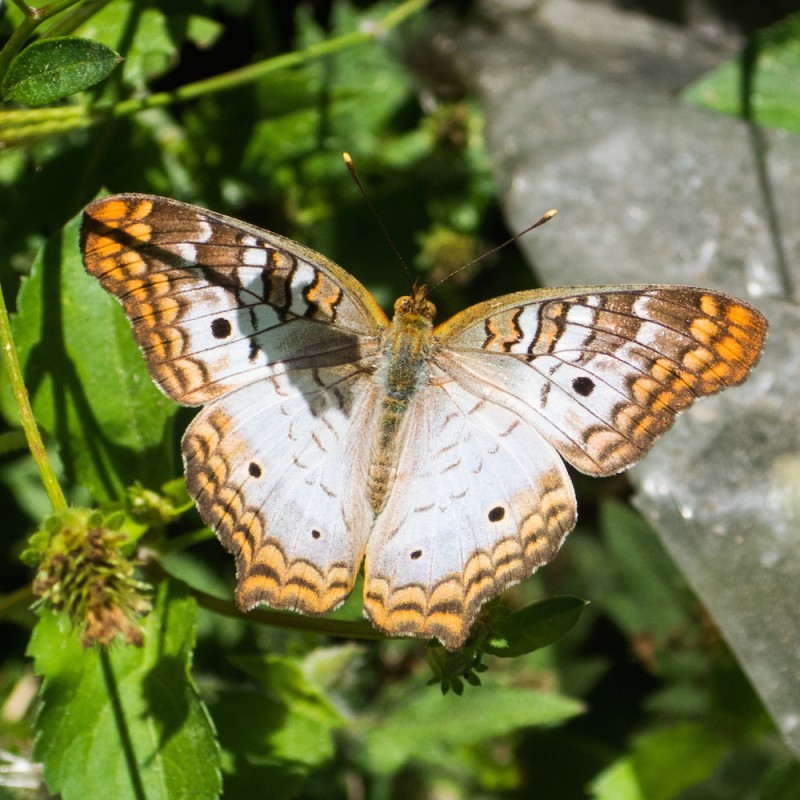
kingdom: Animalia
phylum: Arthropoda
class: Insecta
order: Lepidoptera
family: Nymphalidae
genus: Anartia
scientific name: Anartia jatrophae
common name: White peacock
